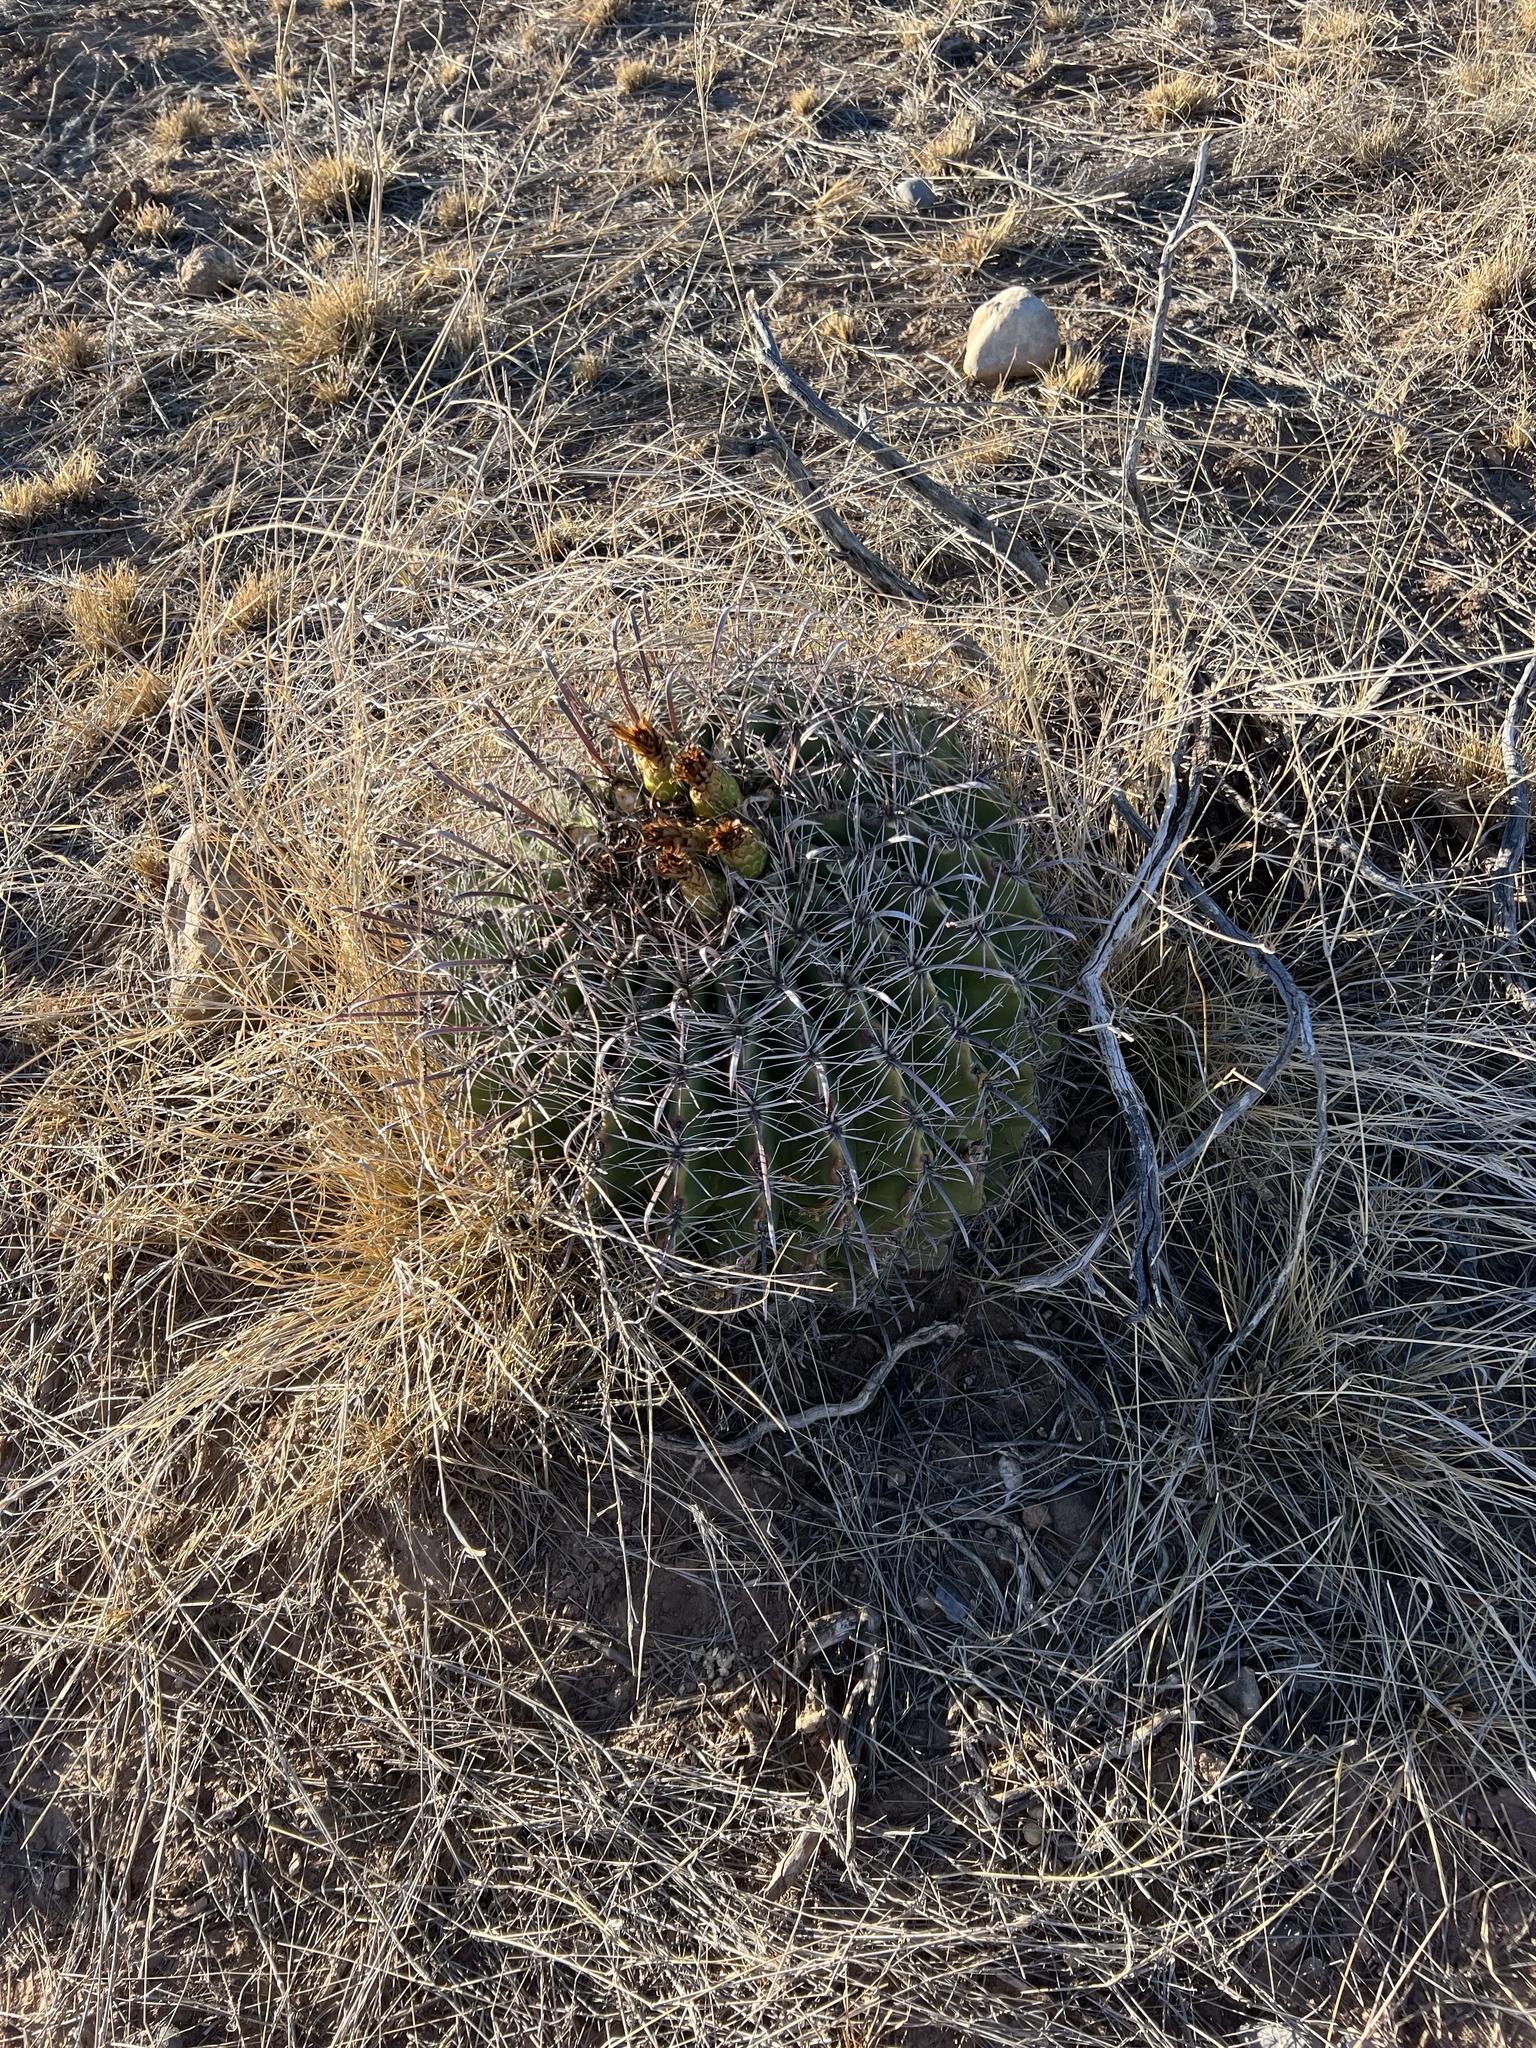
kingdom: Plantae
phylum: Tracheophyta
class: Magnoliopsida
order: Caryophyllales
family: Cactaceae
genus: Ferocactus
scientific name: Ferocactus wislizeni
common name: Candy barrel cactus
